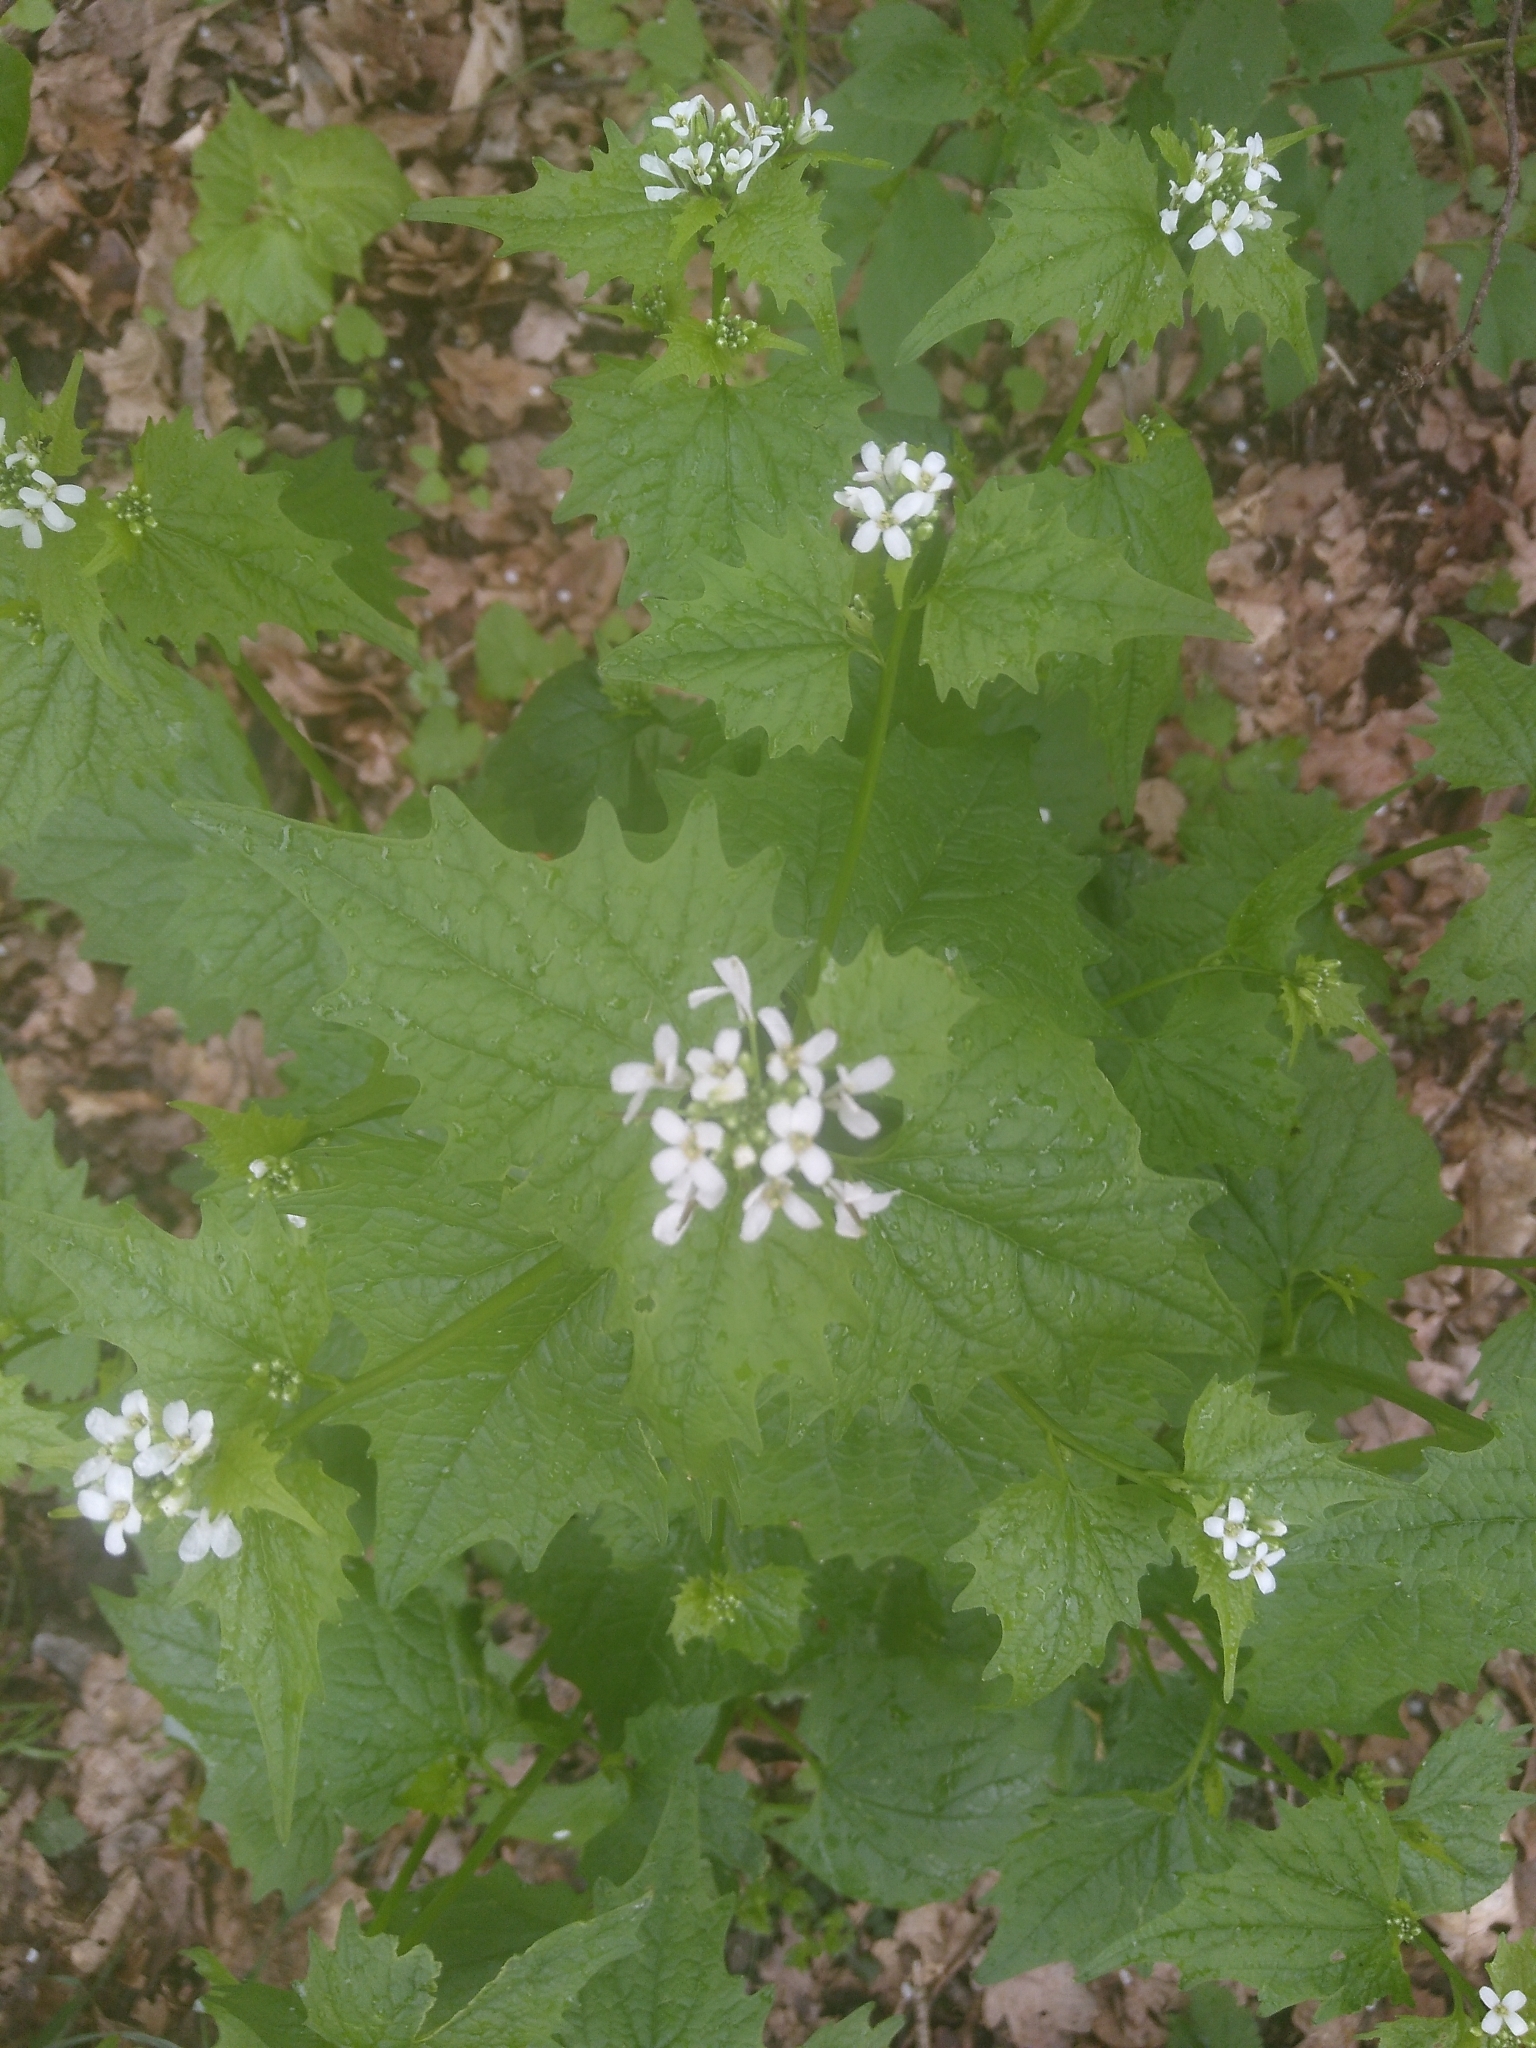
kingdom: Plantae
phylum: Tracheophyta
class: Magnoliopsida
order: Brassicales
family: Brassicaceae
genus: Alliaria
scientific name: Alliaria petiolata
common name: Garlic mustard
